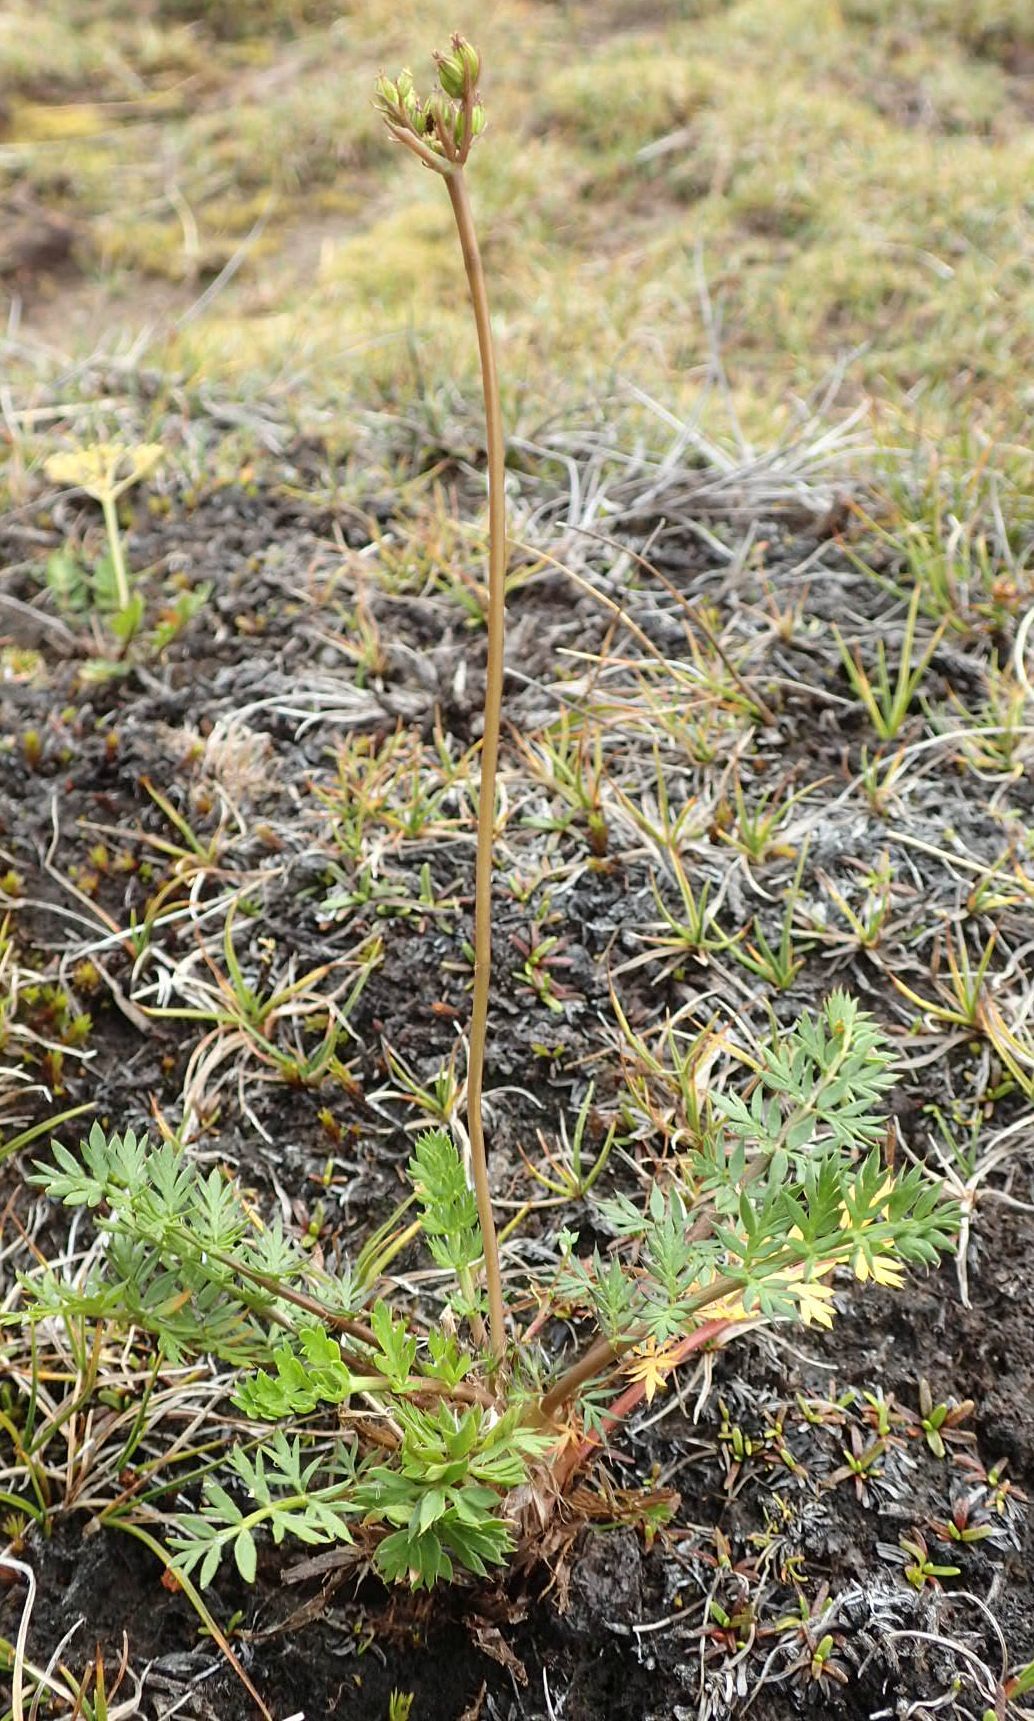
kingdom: Plantae
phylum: Tracheophyta
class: Magnoliopsida
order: Apiales
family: Apiaceae
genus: Anisotome
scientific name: Anisotome aromatica
